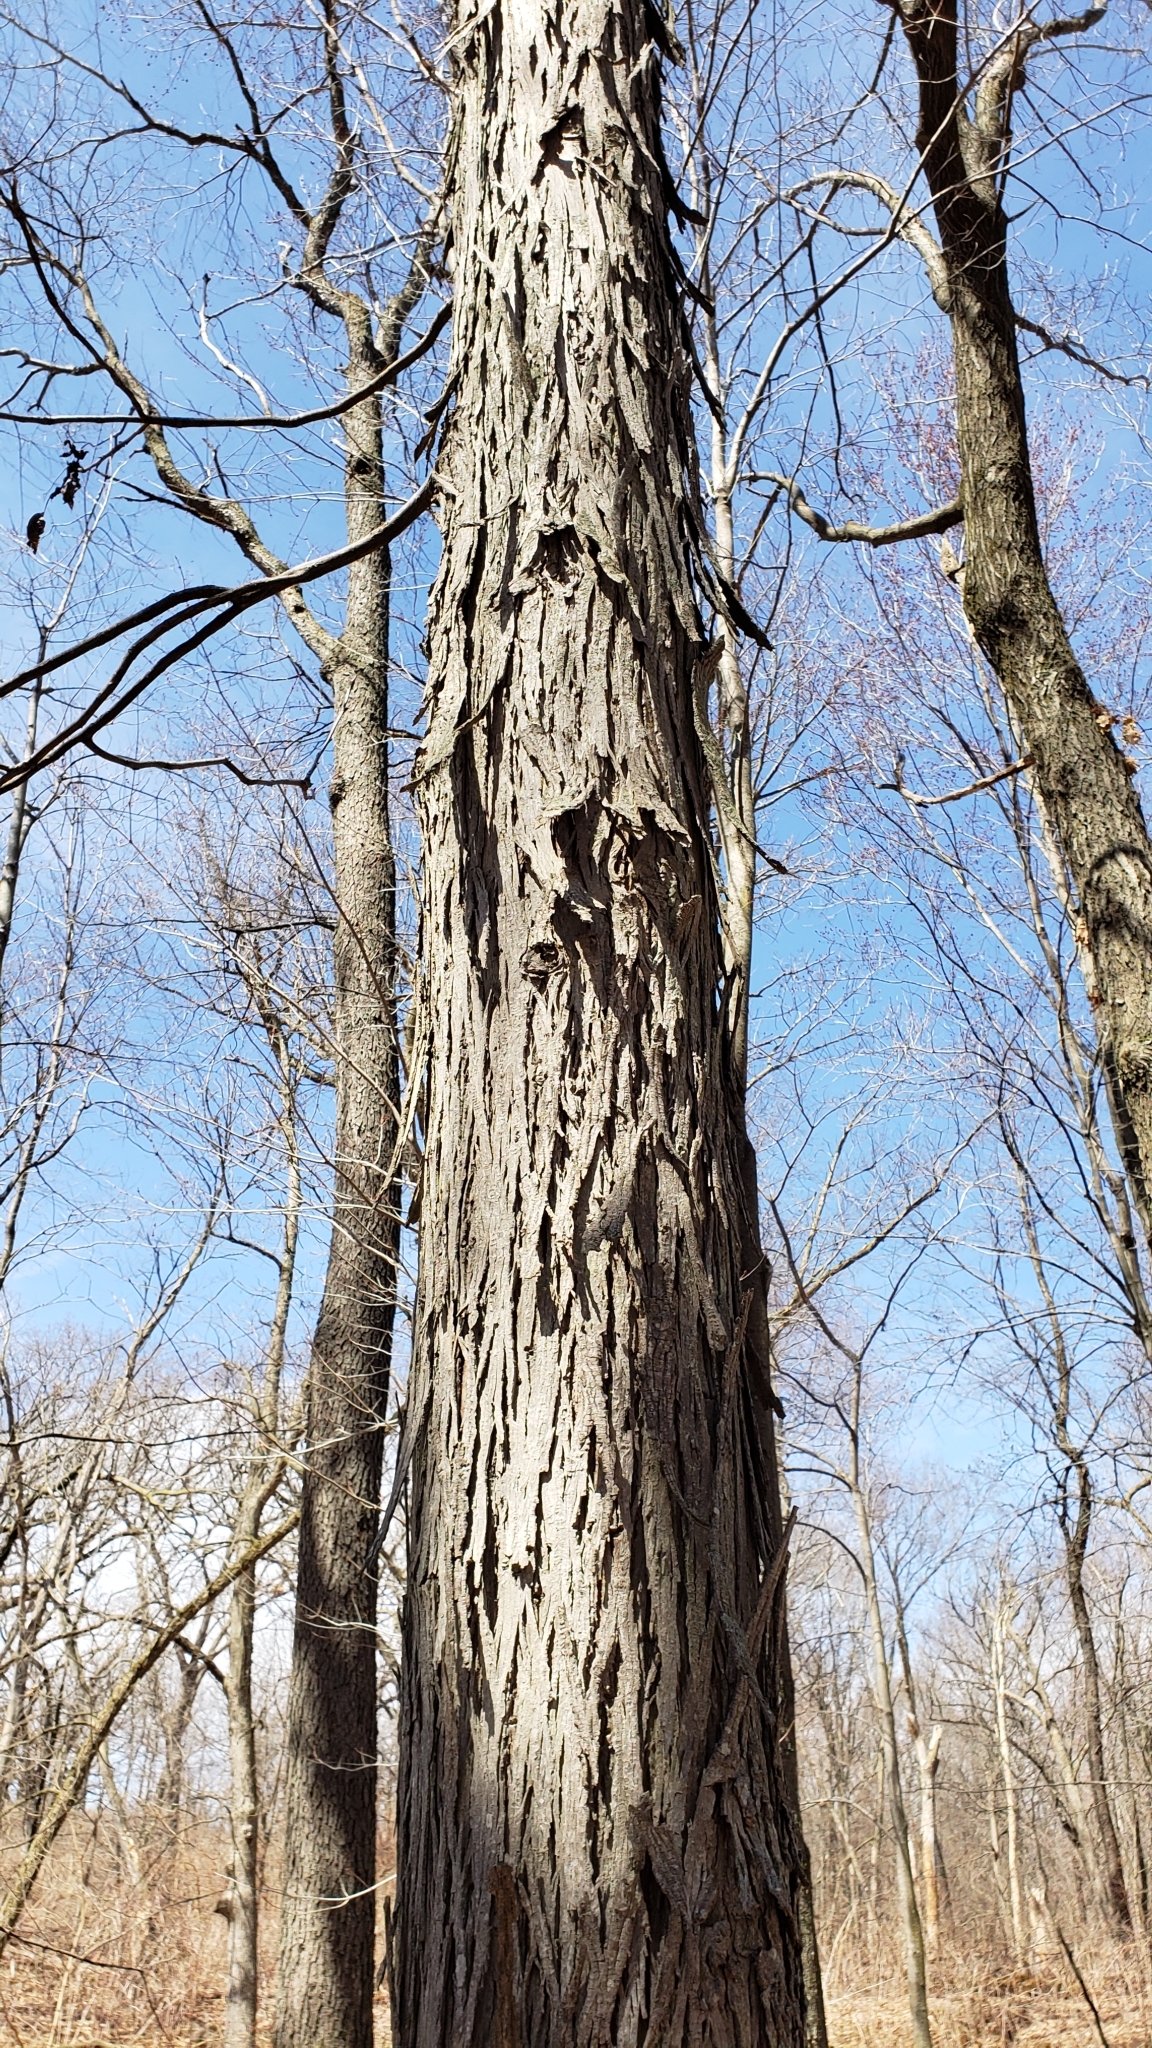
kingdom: Plantae
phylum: Tracheophyta
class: Magnoliopsida
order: Fagales
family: Juglandaceae
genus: Carya
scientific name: Carya ovata
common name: Shagbark hickory
